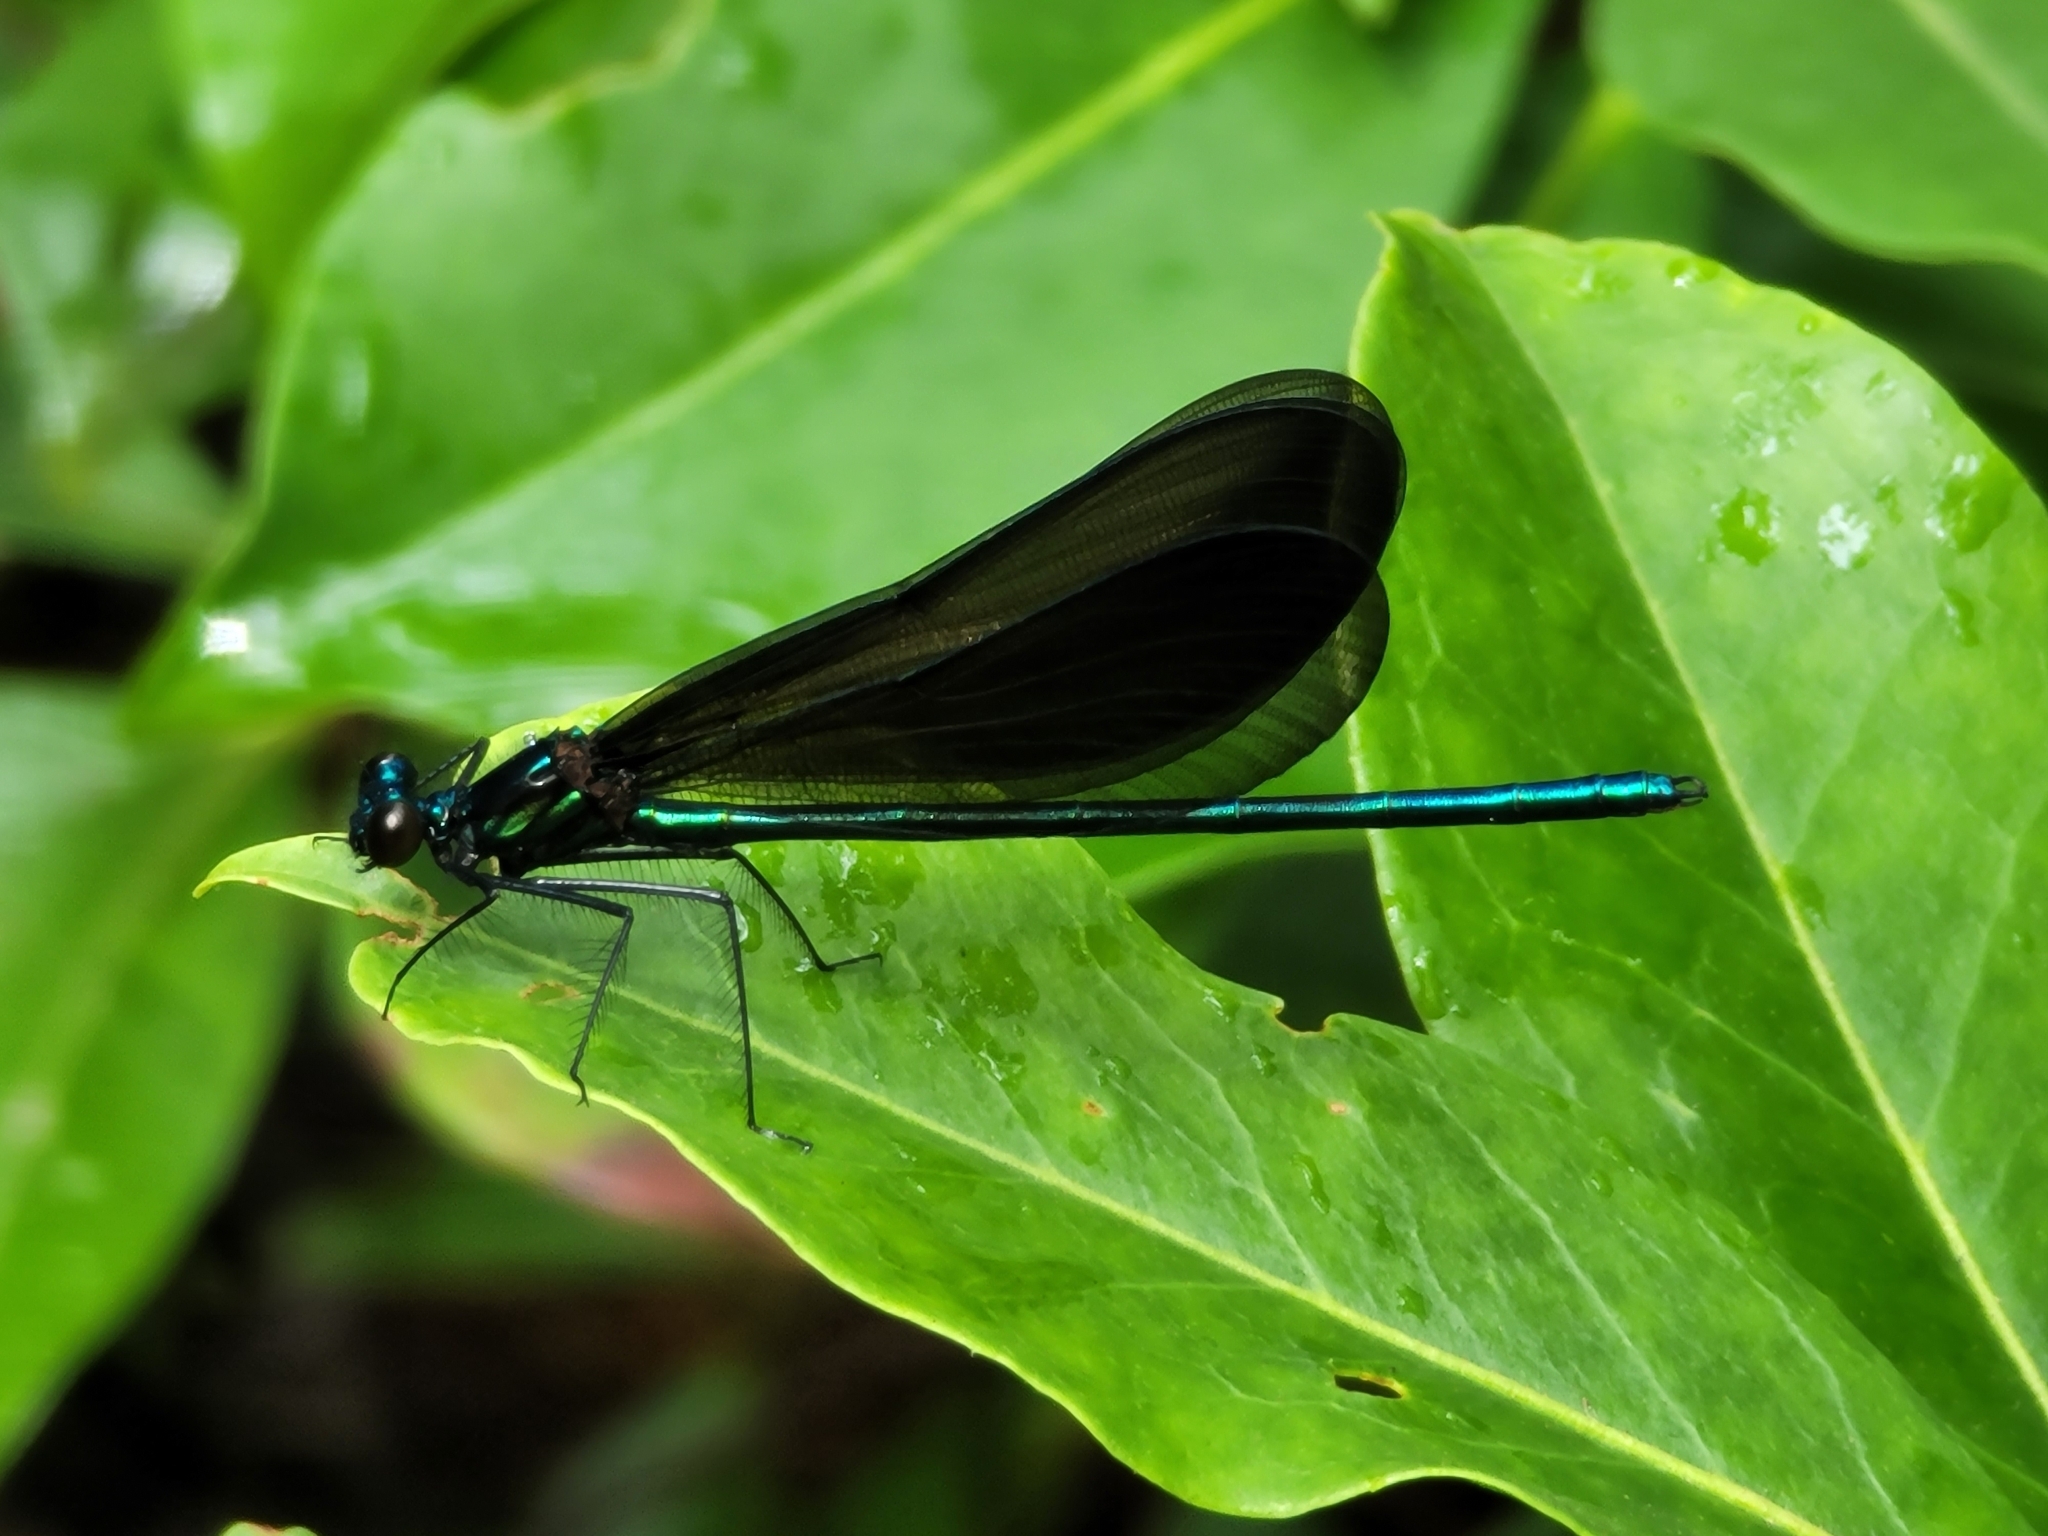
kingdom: Animalia
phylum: Arthropoda
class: Insecta
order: Odonata
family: Calopterygidae
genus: Calopteryx
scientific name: Calopteryx maculata
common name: Ebony jewelwing
